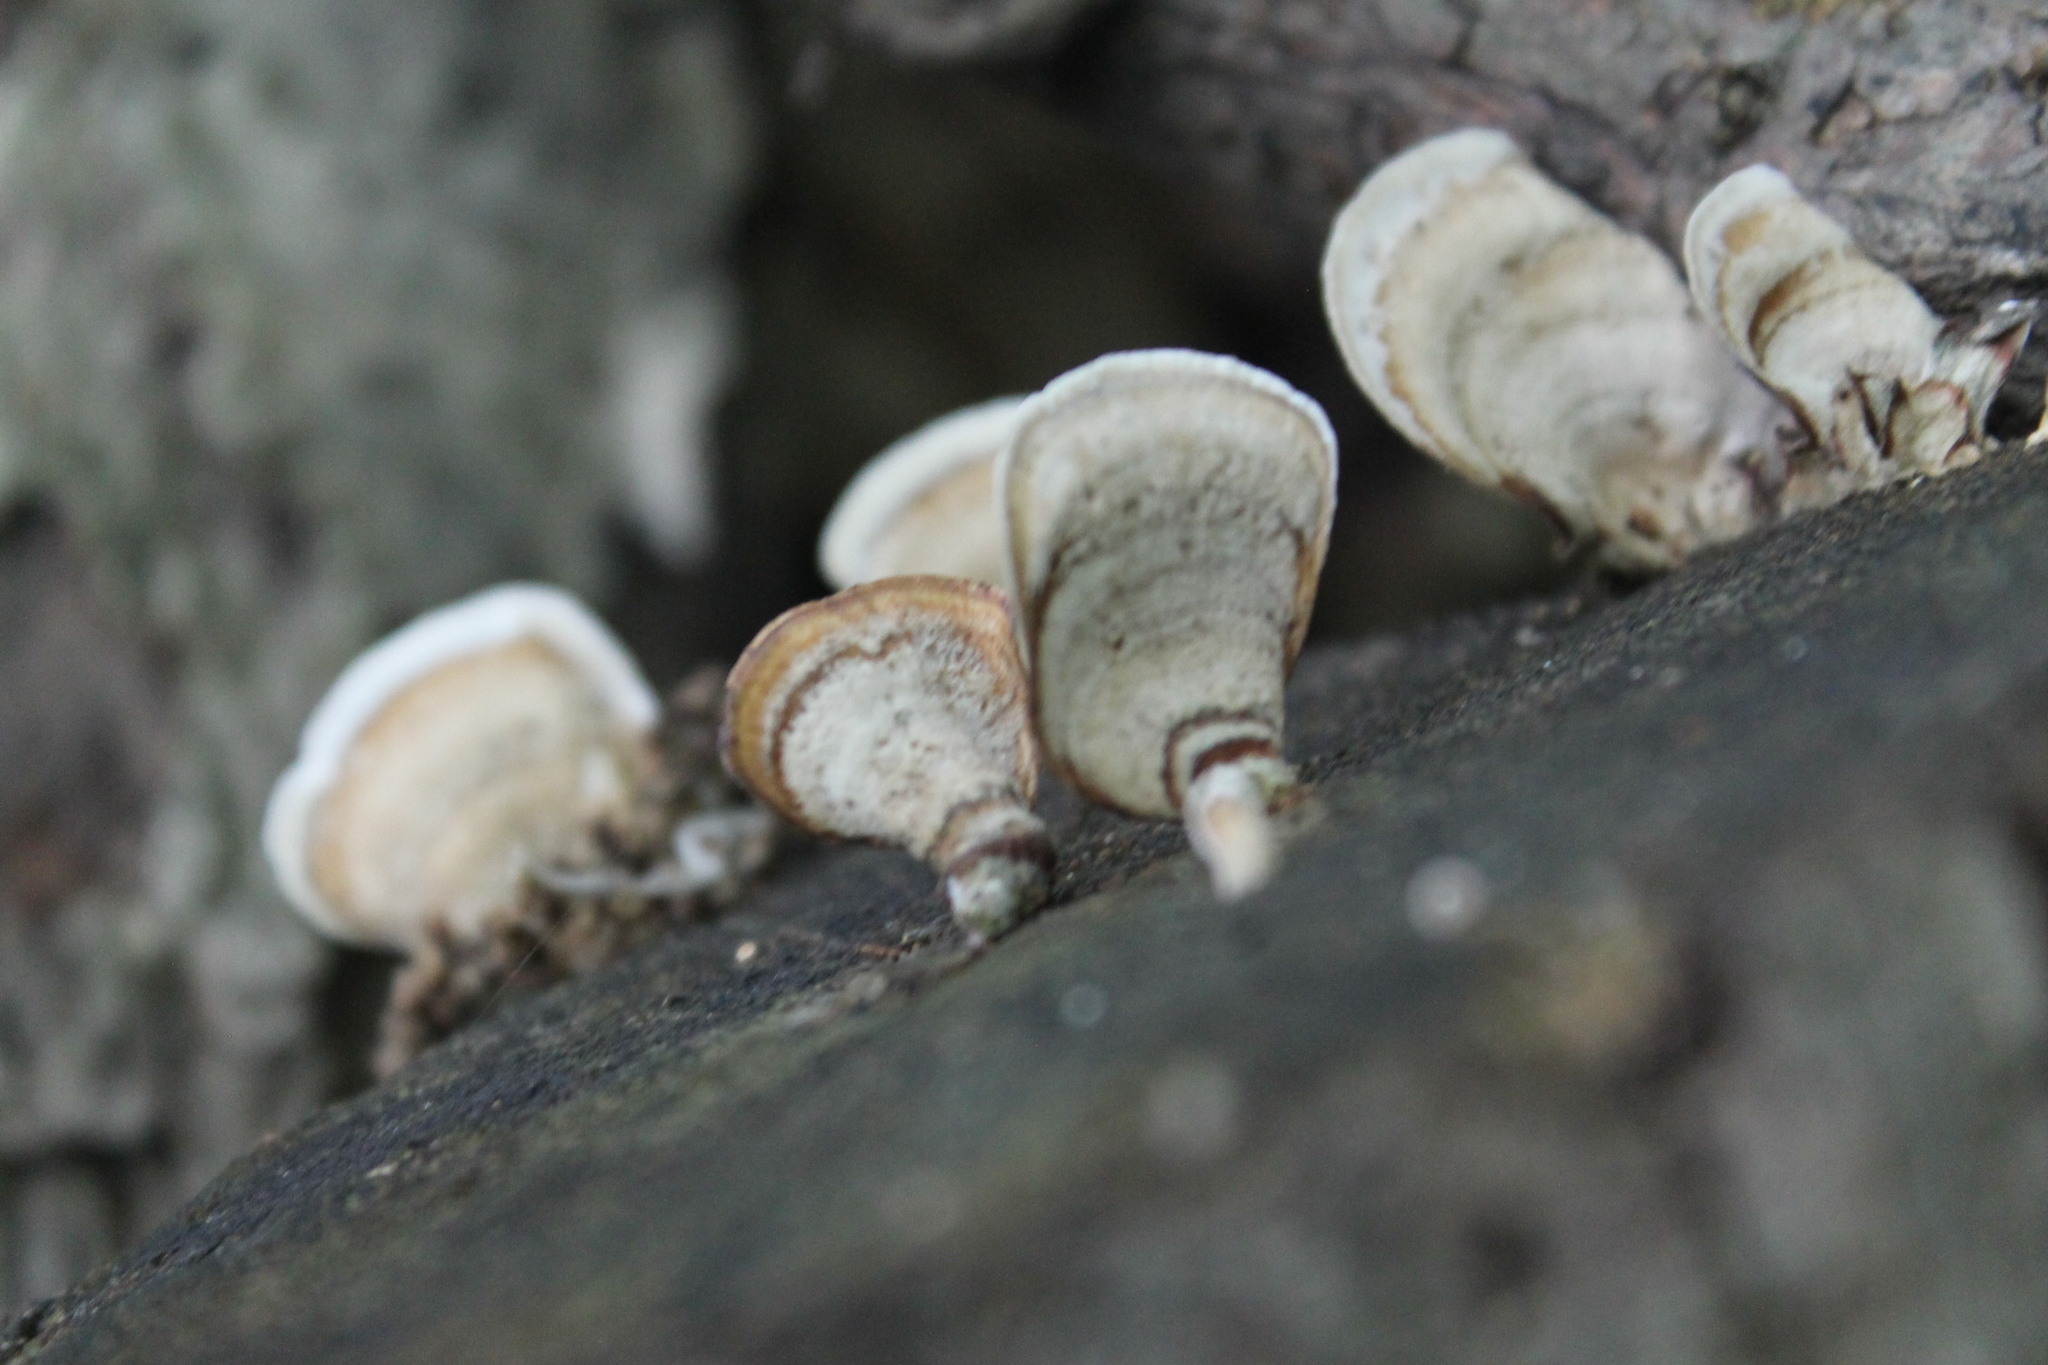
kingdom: Fungi
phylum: Basidiomycota
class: Agaricomycetes
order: Russulales
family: Stereaceae
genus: Stereum
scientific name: Stereum lobatum
